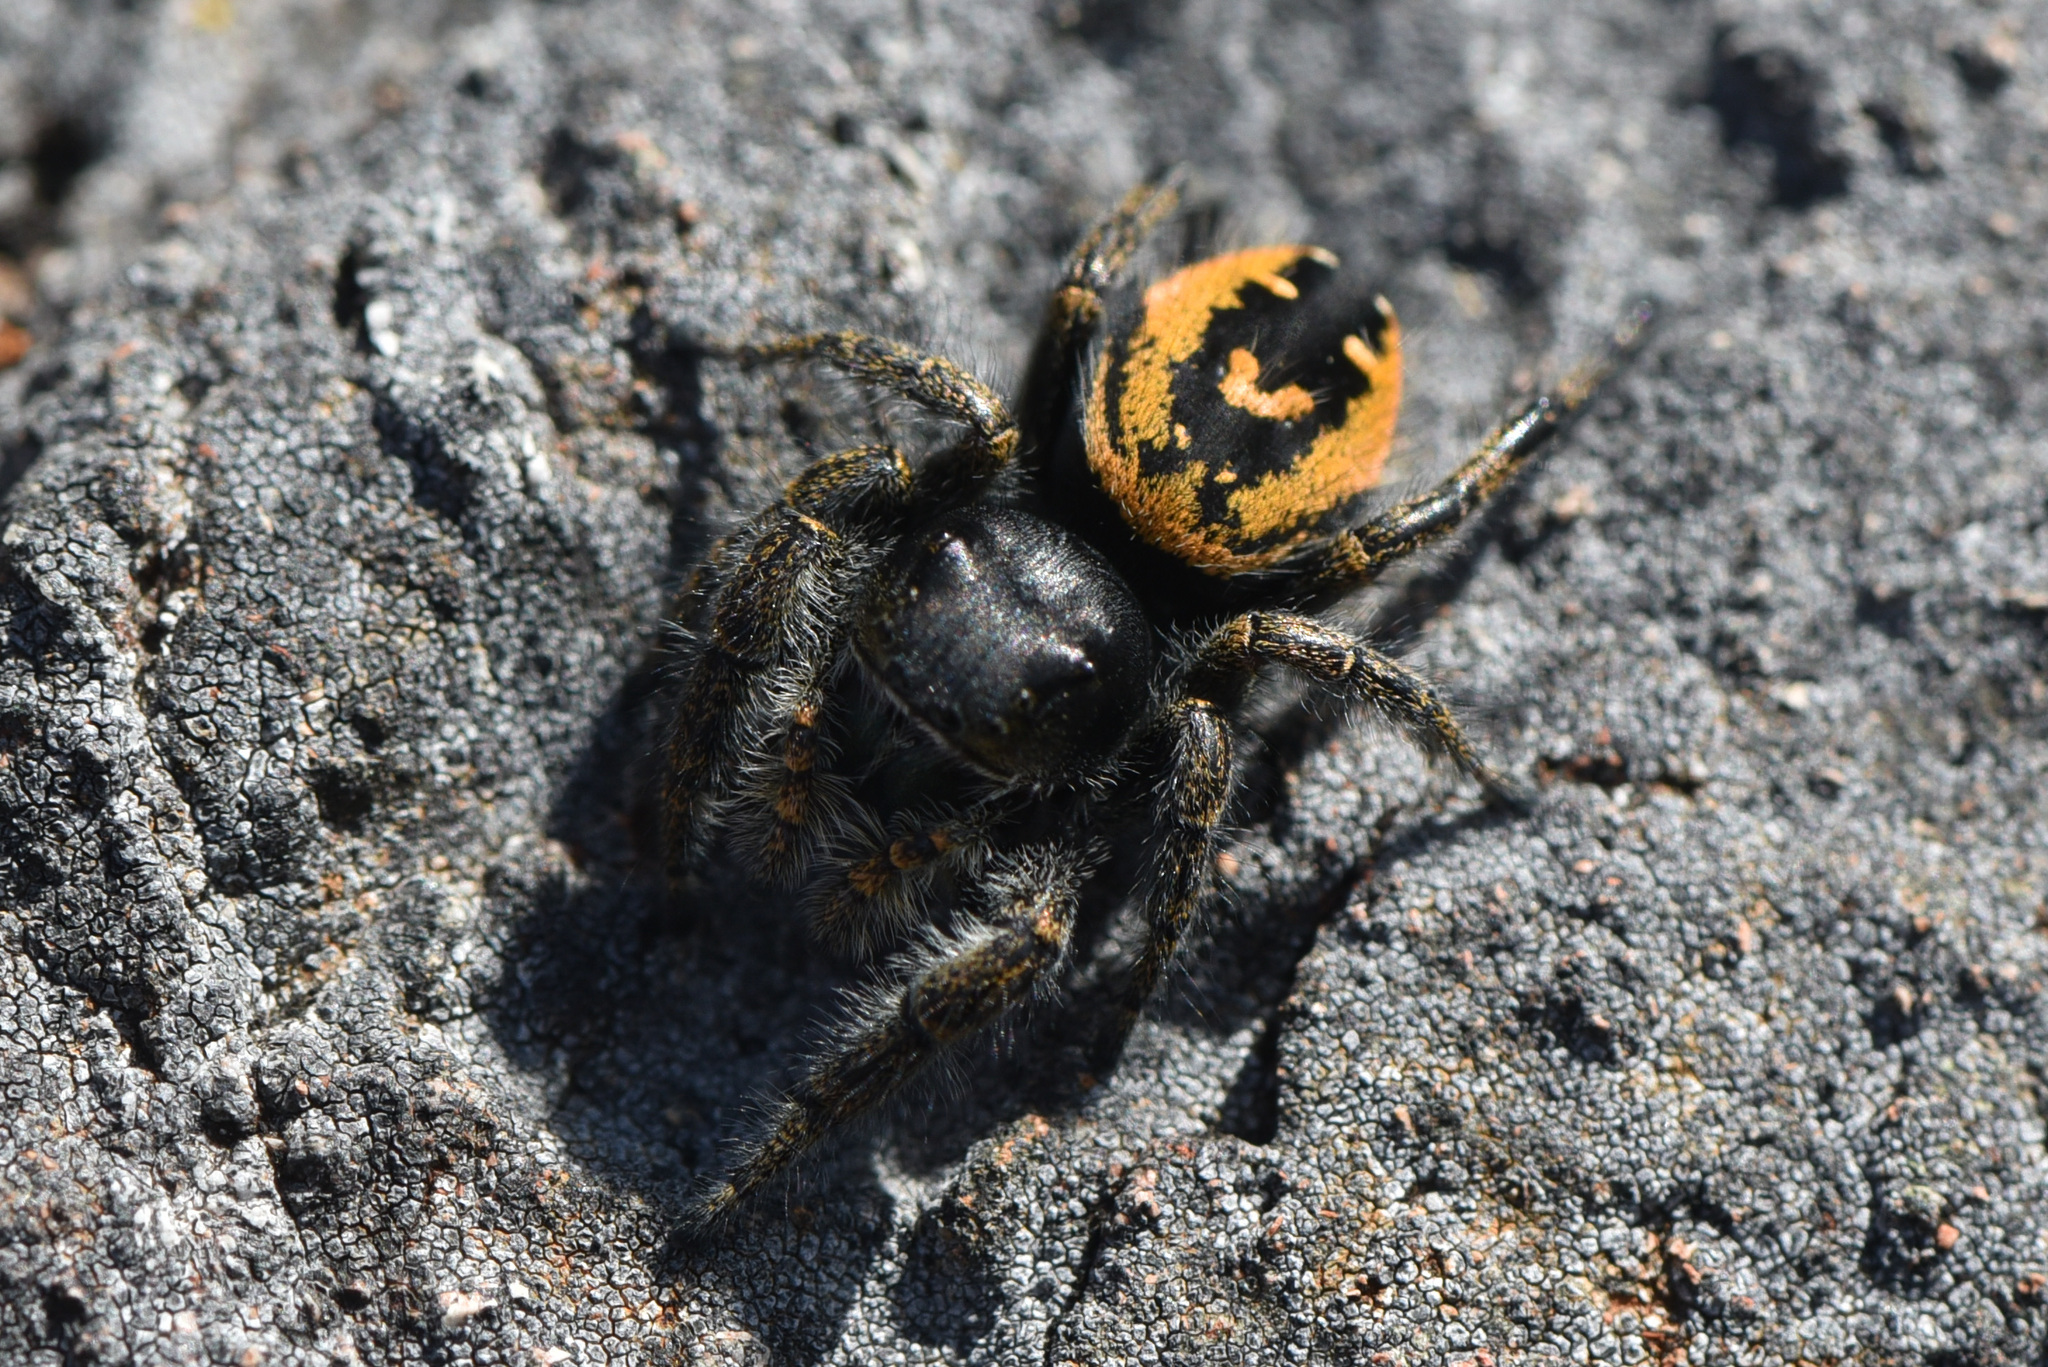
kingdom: Animalia
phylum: Arthropoda
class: Arachnida
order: Araneae
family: Salticidae
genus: Phidippus
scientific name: Phidippus johnsoni
